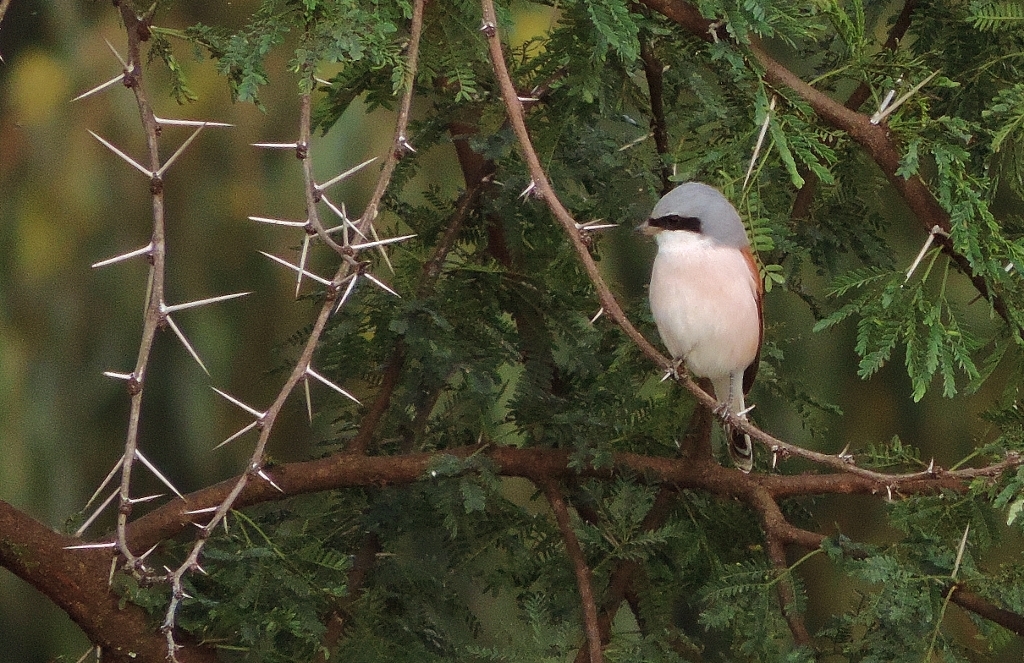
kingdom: Animalia
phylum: Chordata
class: Aves
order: Passeriformes
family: Laniidae
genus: Lanius
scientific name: Lanius collurio
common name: Red-backed shrike
